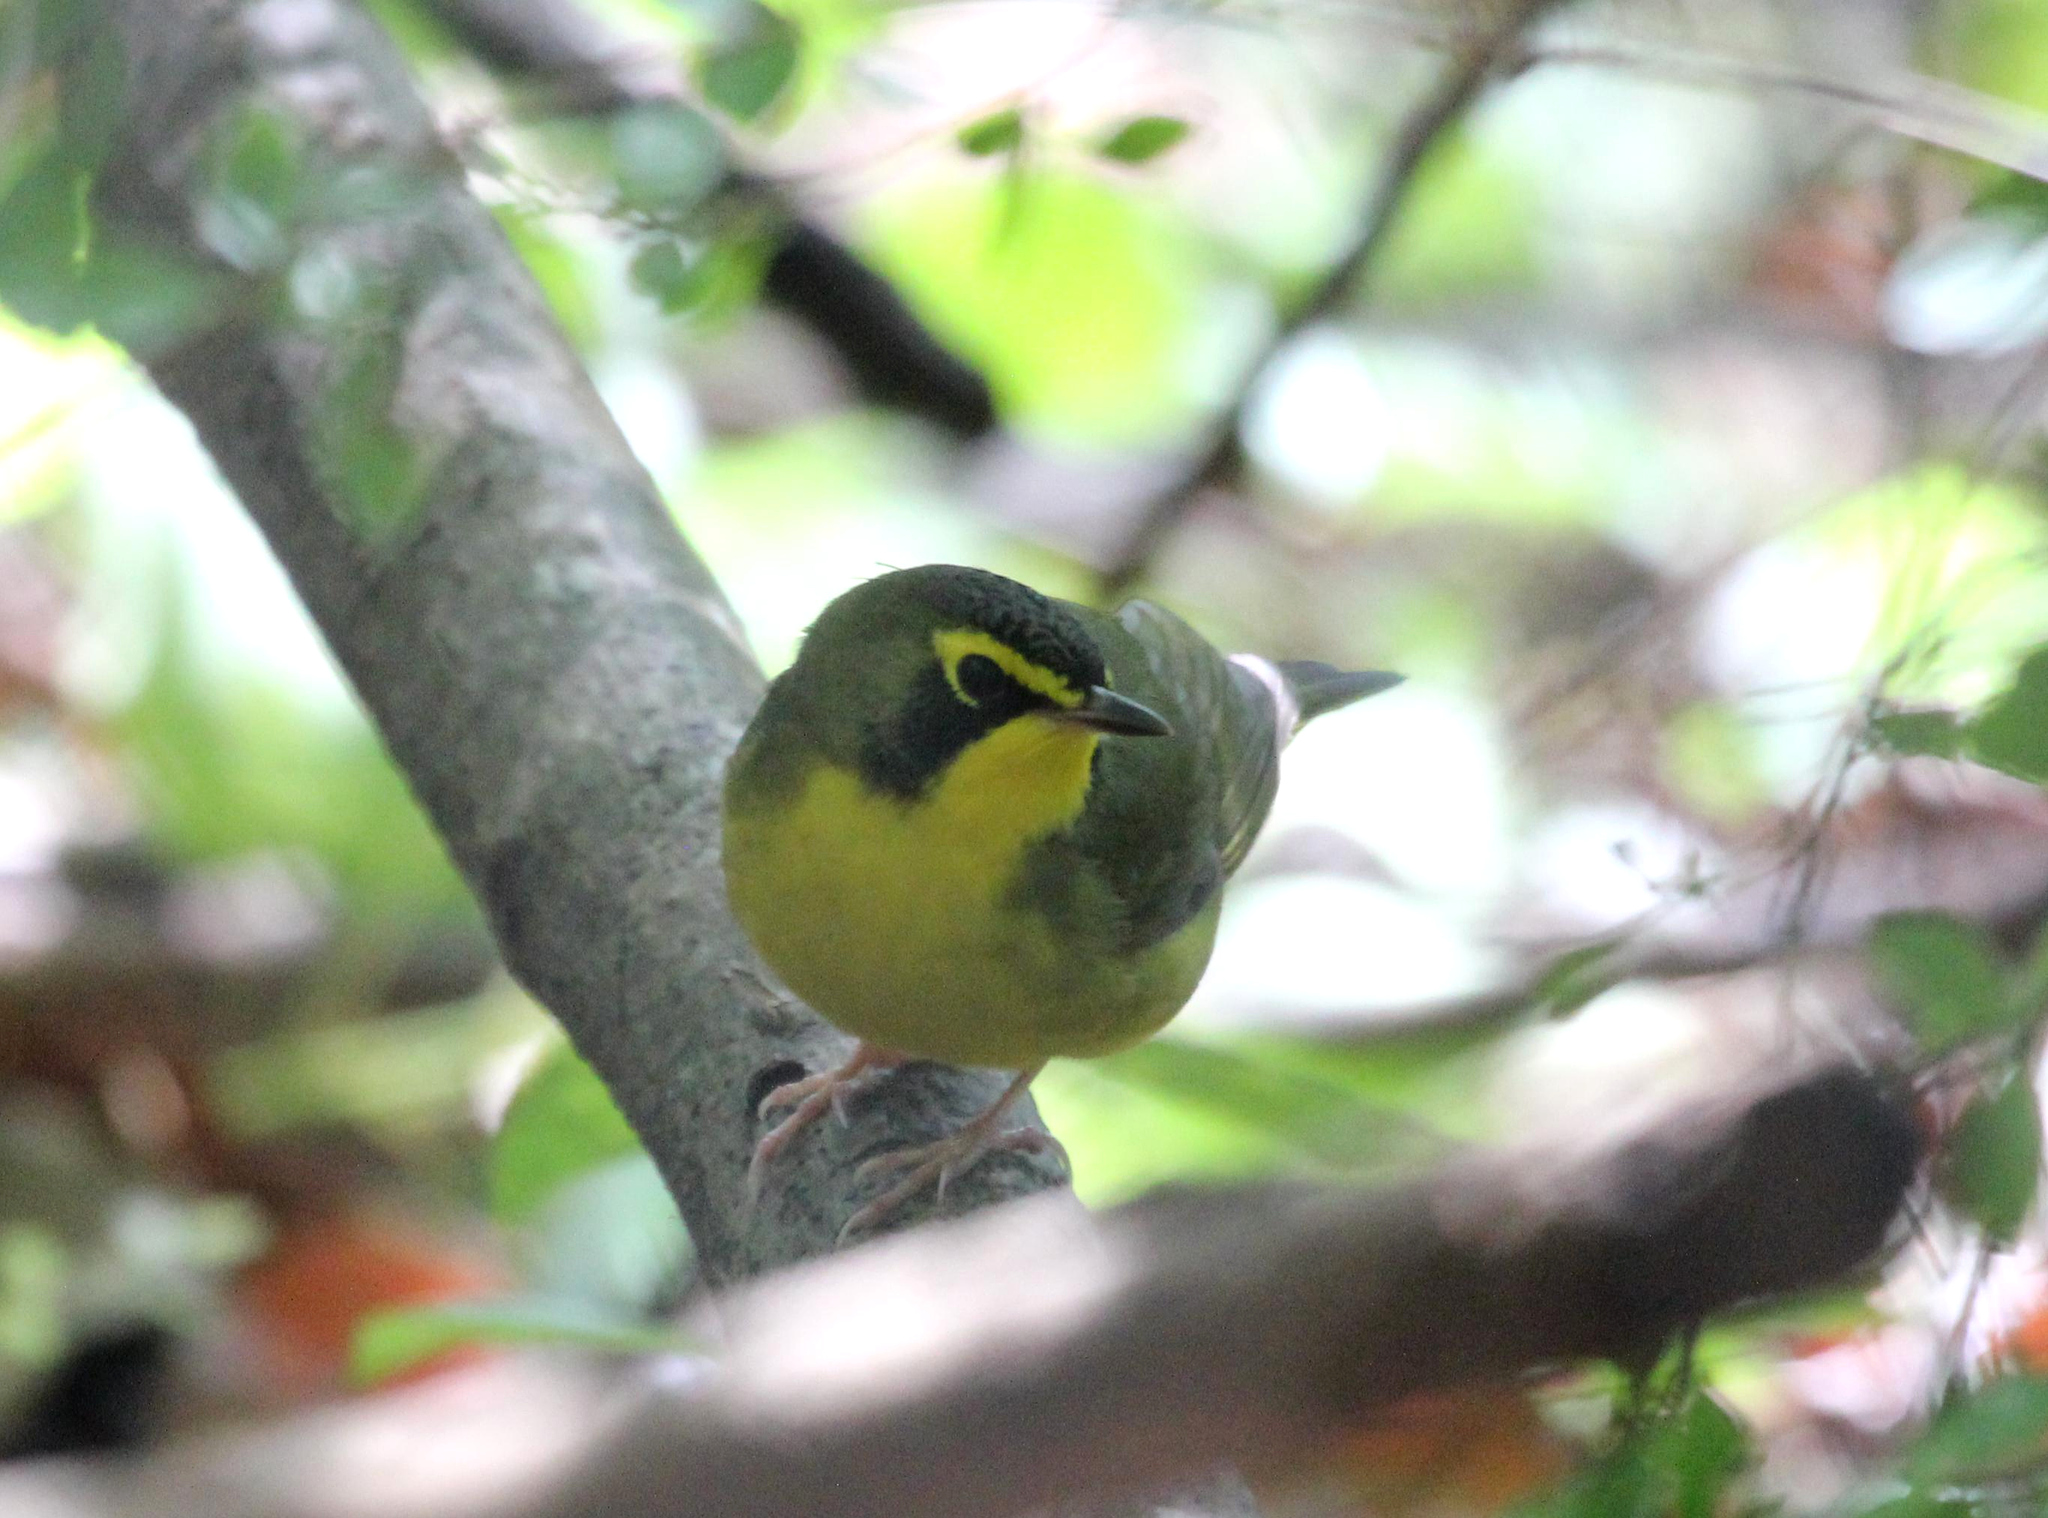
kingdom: Animalia
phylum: Chordata
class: Aves
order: Passeriformes
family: Parulidae
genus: Geothlypis
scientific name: Geothlypis formosa
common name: Kentucky warbler
